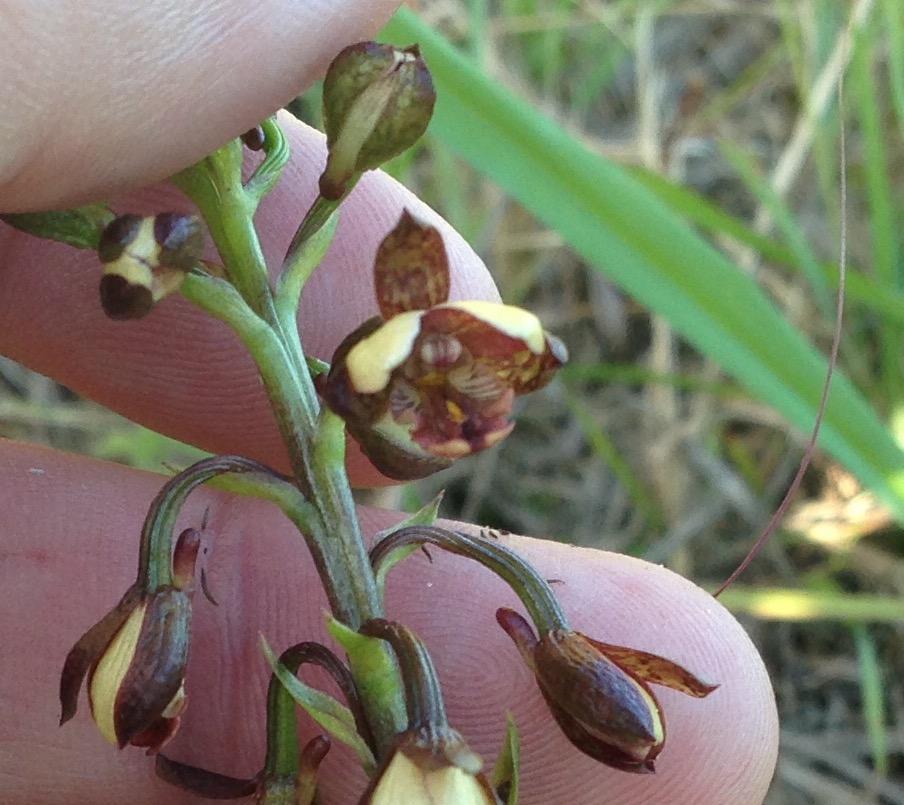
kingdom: Plantae
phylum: Tracheophyta
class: Liliopsida
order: Asparagales
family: Orchidaceae
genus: Eulophia
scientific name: Eulophia tenella
